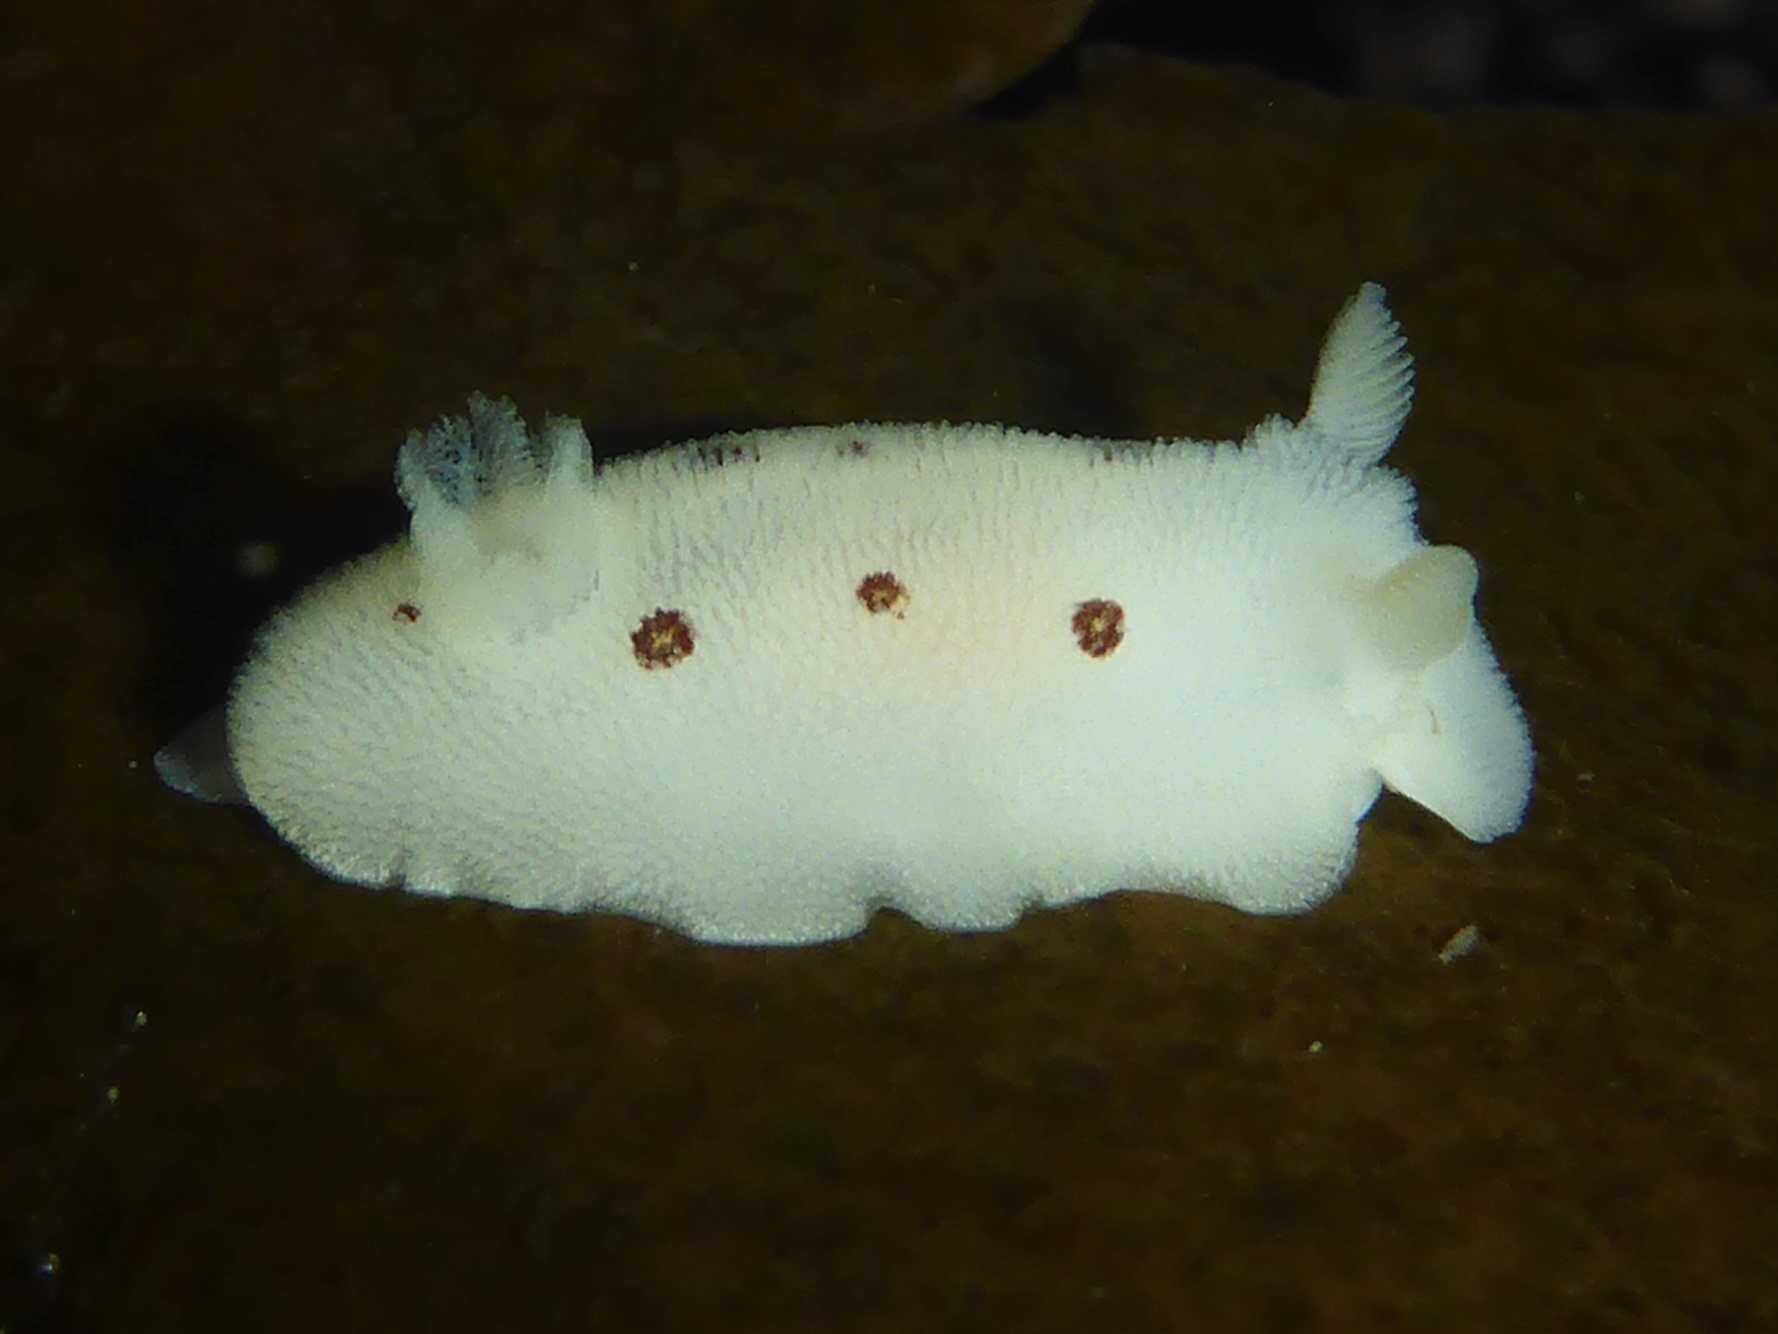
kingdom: Animalia
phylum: Mollusca
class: Gastropoda
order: Nudibranchia
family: Discodorididae
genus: Diaulula
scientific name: Diaulula sandiegensis
